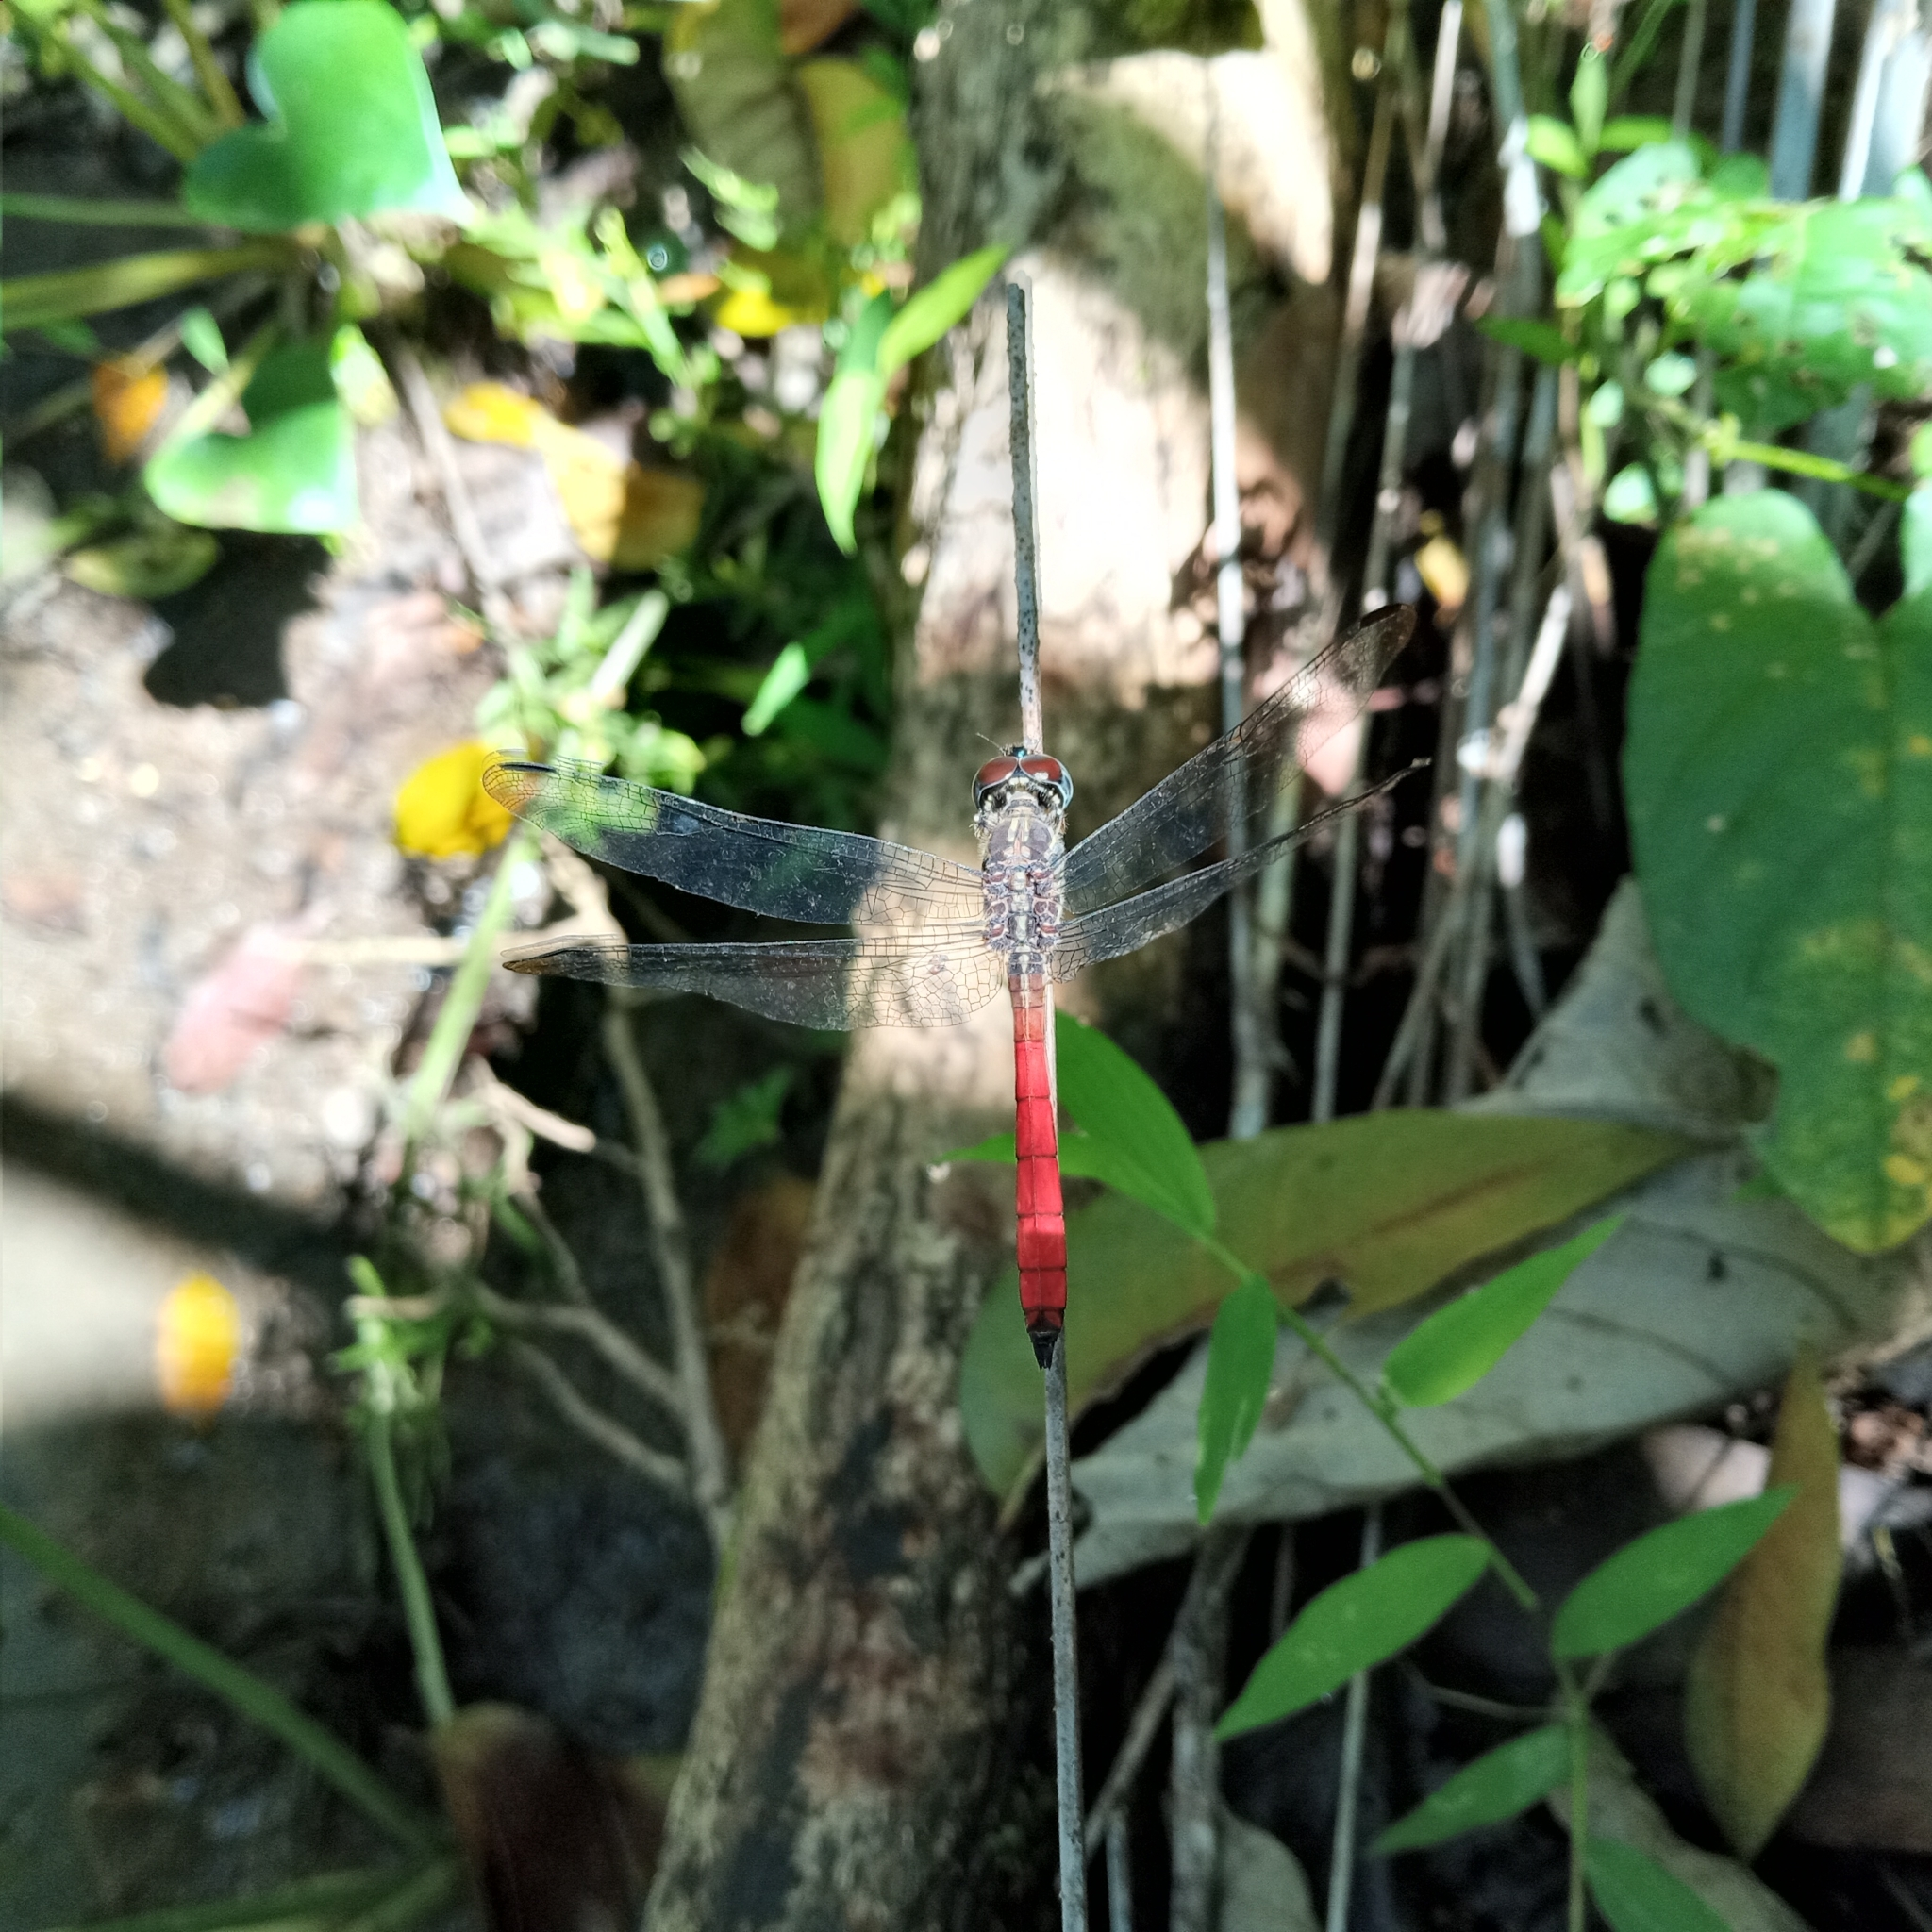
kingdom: Animalia
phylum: Arthropoda
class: Insecta
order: Odonata
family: Libellulidae
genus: Lathrecista
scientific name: Lathrecista asiatica
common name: Scarlet grenadier
